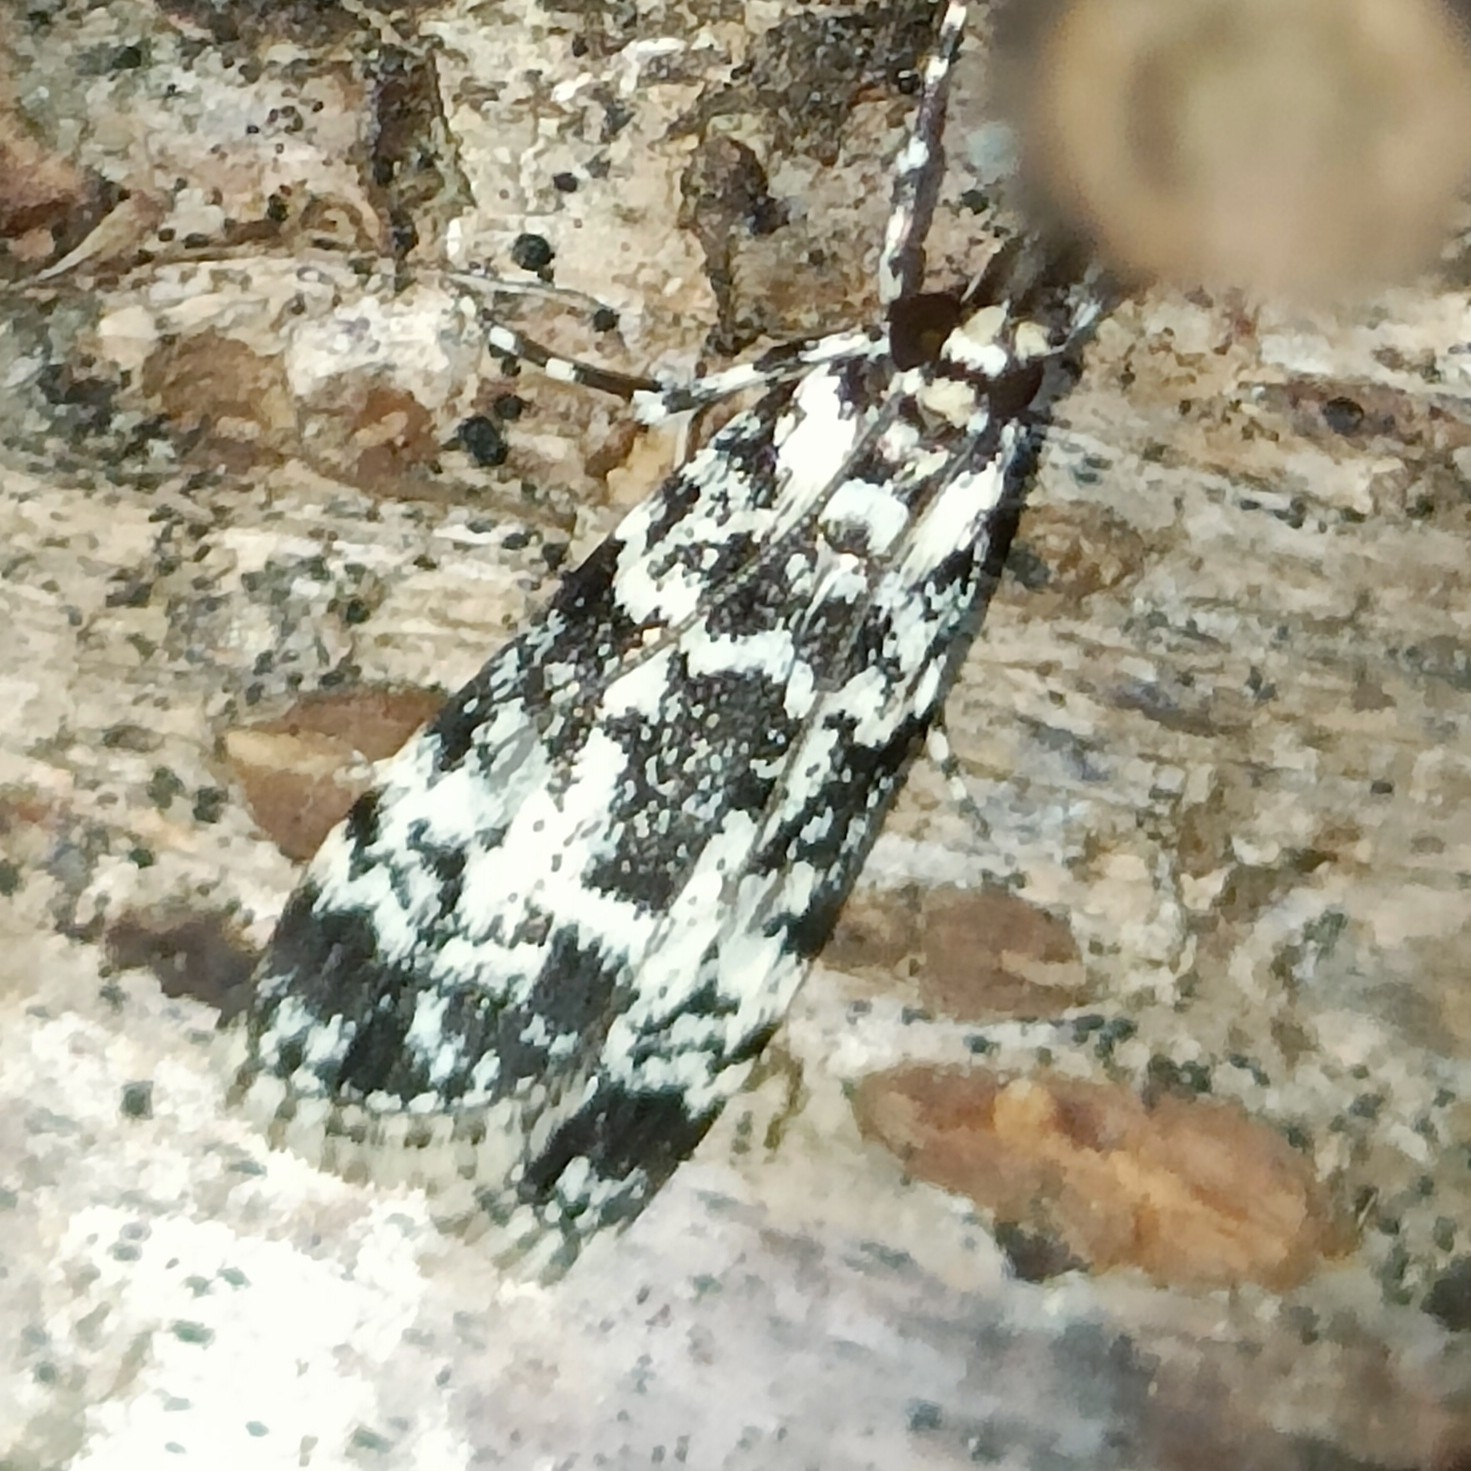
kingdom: Animalia
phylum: Arthropoda
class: Insecta
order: Lepidoptera
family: Crambidae
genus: Scoparia
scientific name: Scoparia exhibitalis
